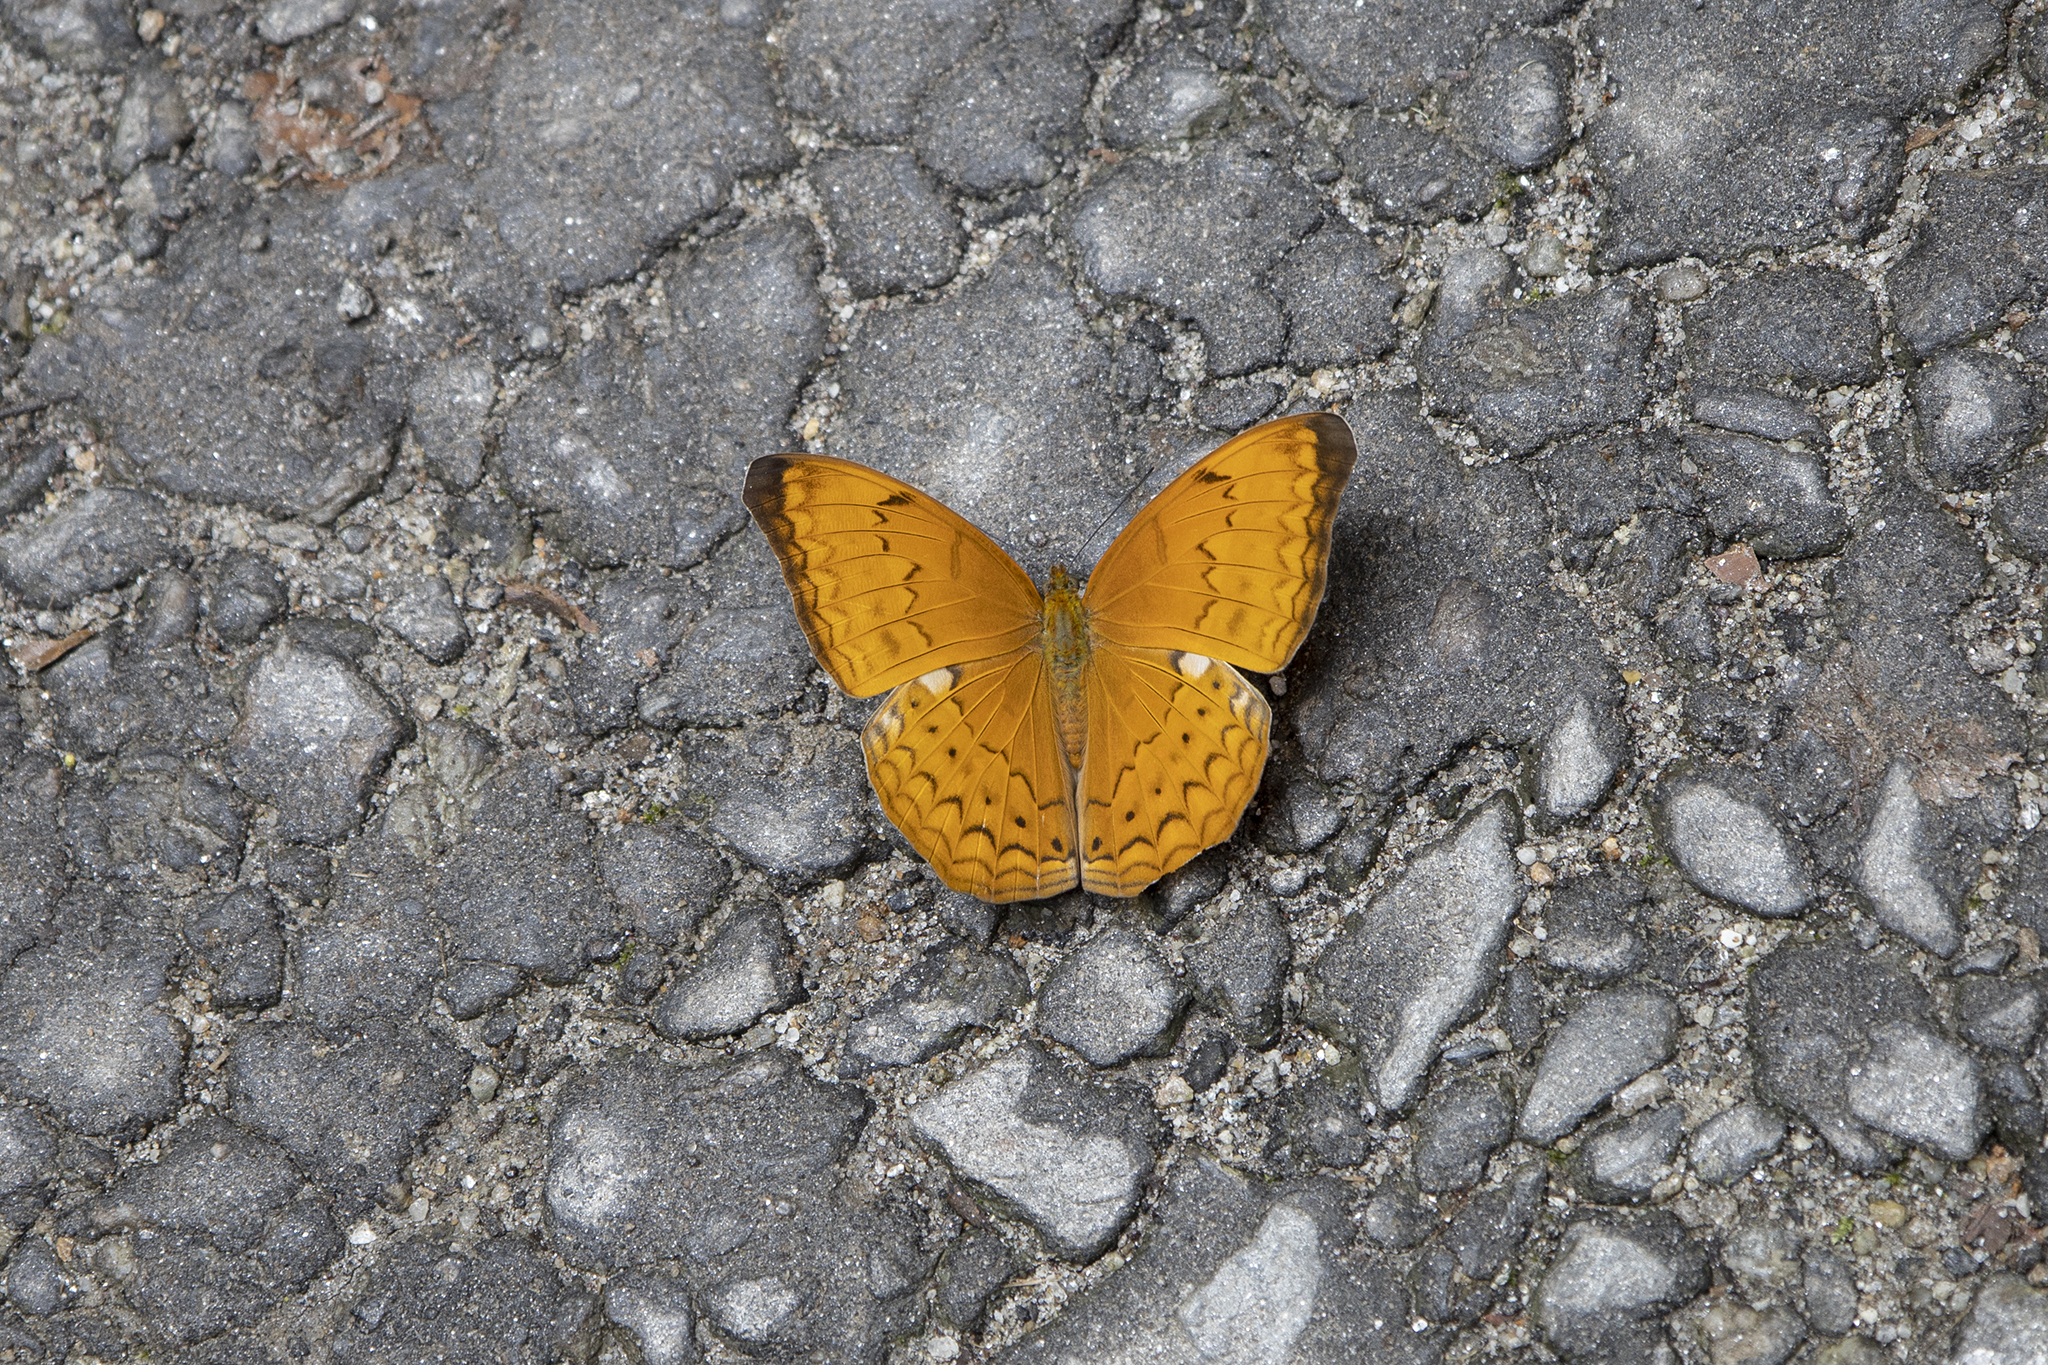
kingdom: Animalia
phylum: Arthropoda
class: Insecta
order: Lepidoptera
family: Nymphalidae
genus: Cirrochroa
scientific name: Cirrochroa aoris
